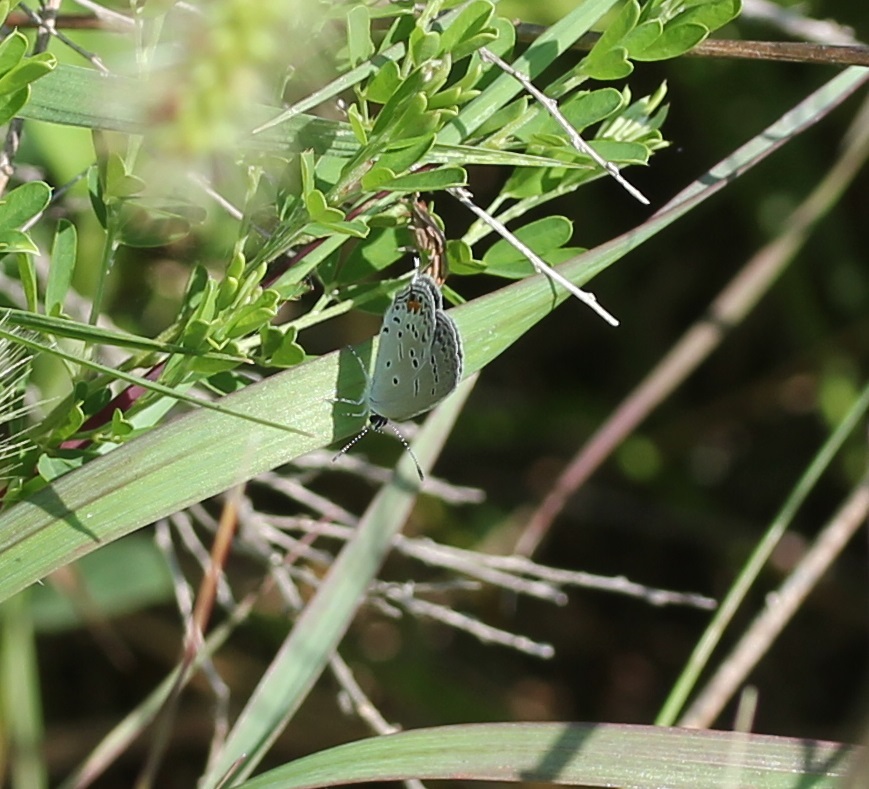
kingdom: Animalia
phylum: Arthropoda
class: Insecta
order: Lepidoptera
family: Lycaenidae
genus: Elkalyce
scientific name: Elkalyce comyntas
